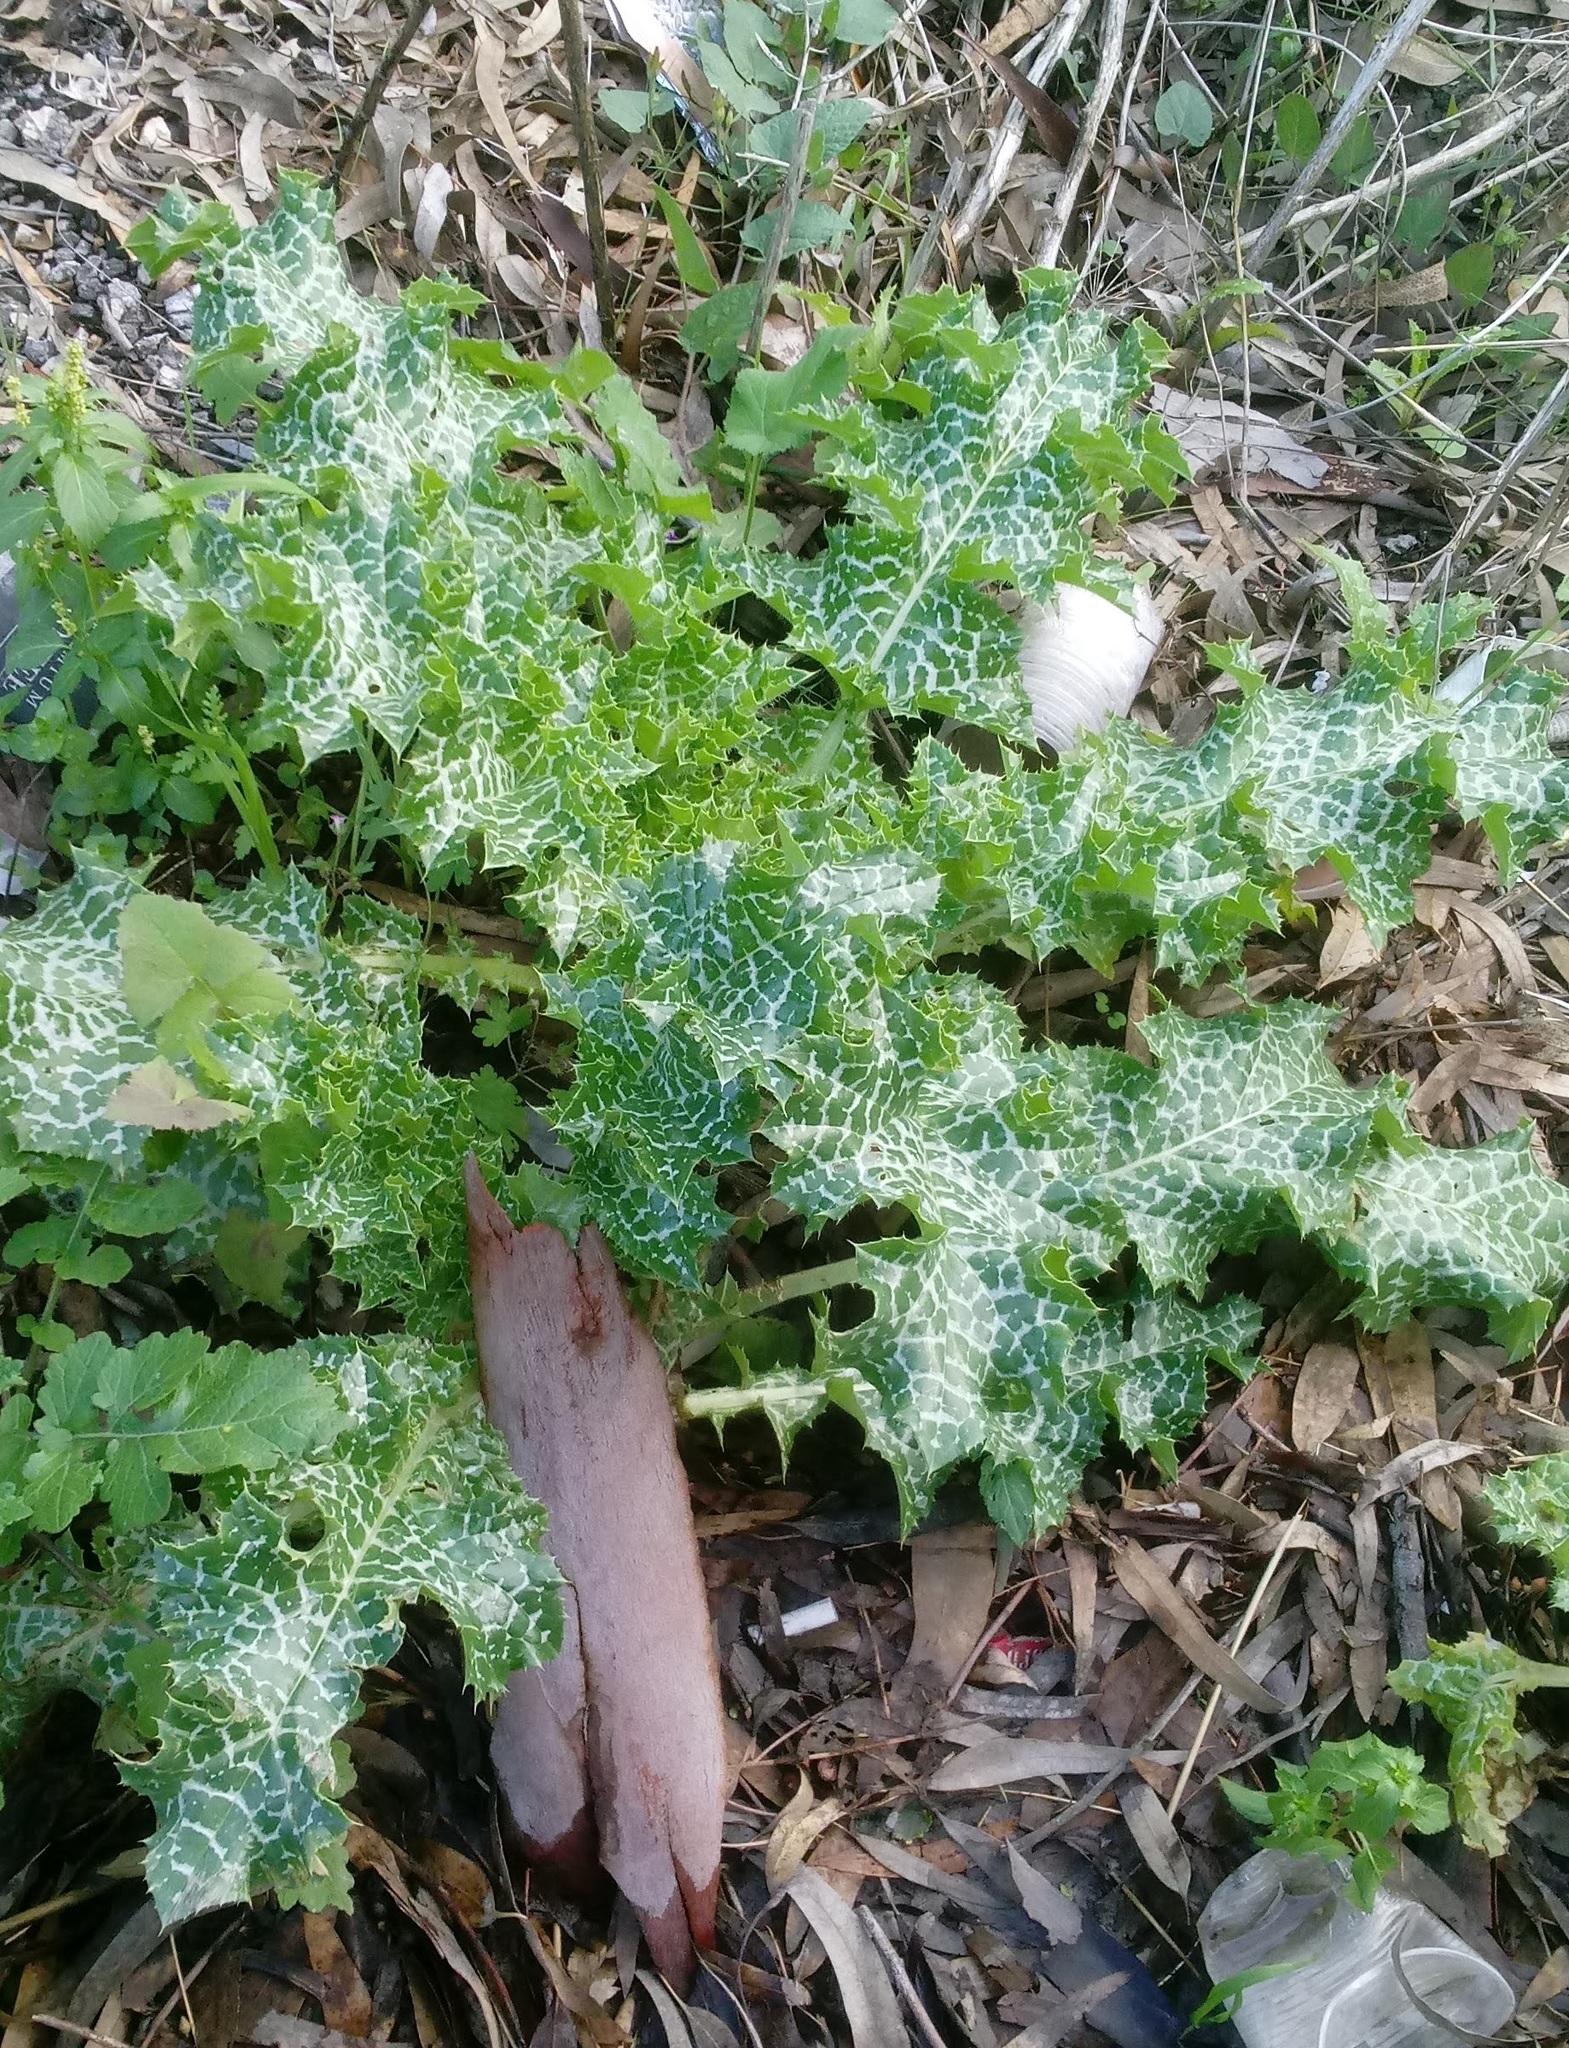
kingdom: Plantae
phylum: Tracheophyta
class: Magnoliopsida
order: Asterales
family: Asteraceae
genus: Silybum
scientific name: Silybum marianum
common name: Milk thistle
